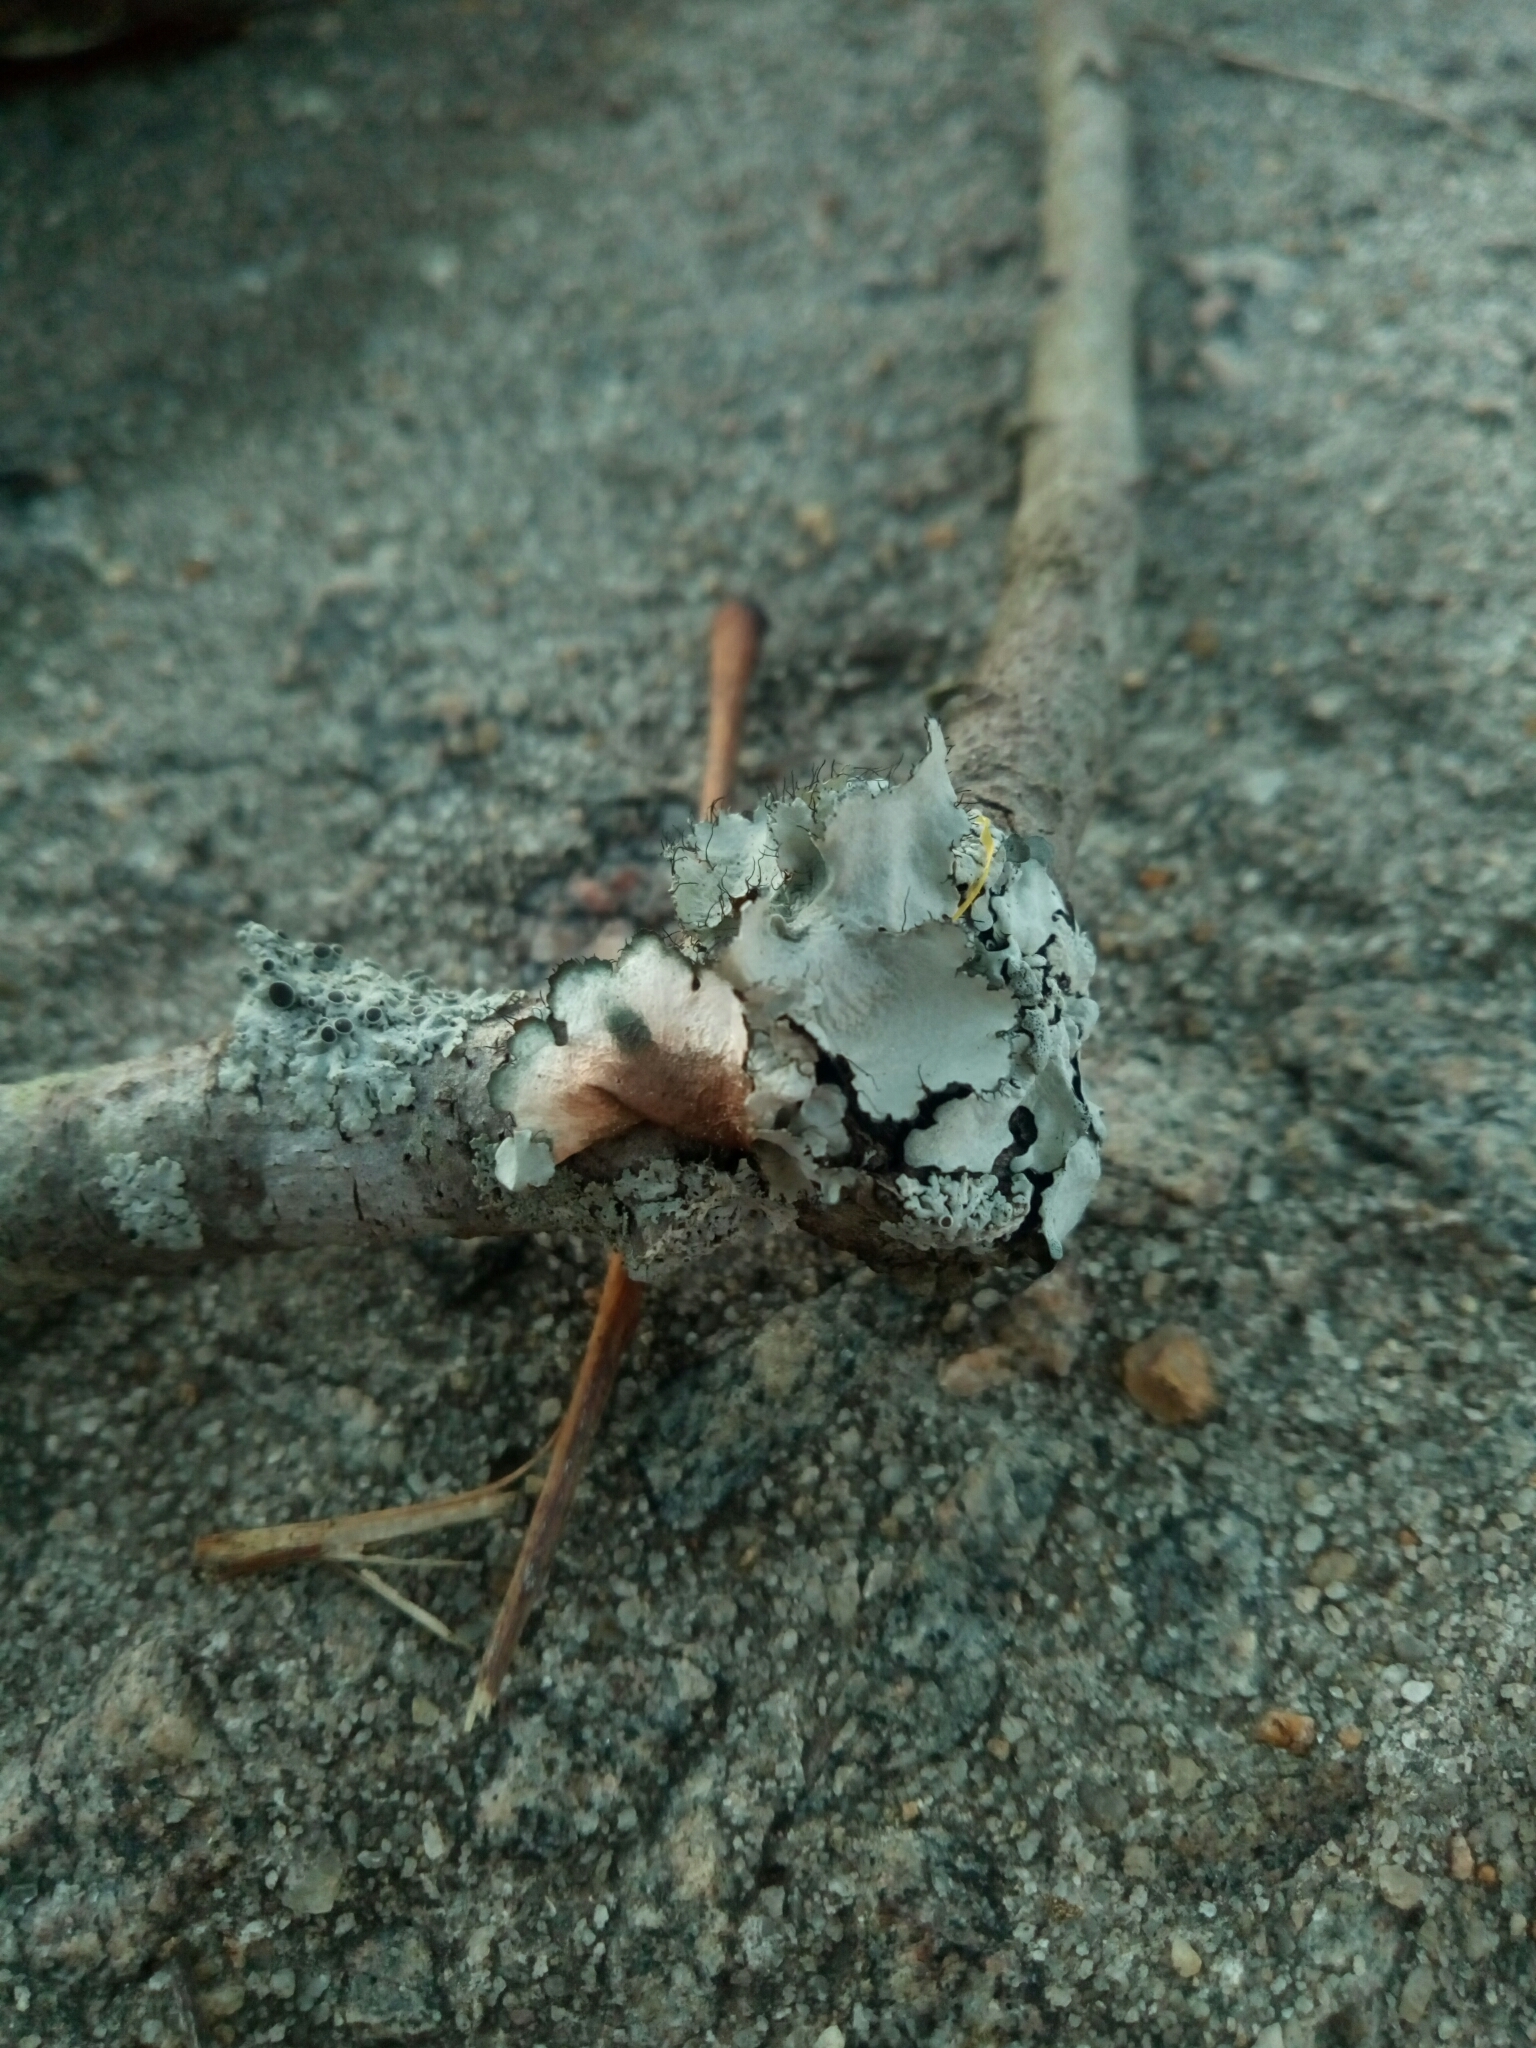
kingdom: Fungi
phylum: Ascomycota
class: Lecanoromycetes
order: Lecanorales
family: Parmeliaceae
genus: Parmotrema
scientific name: Parmotrema hypotropum
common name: Powdered ruffle lichen
